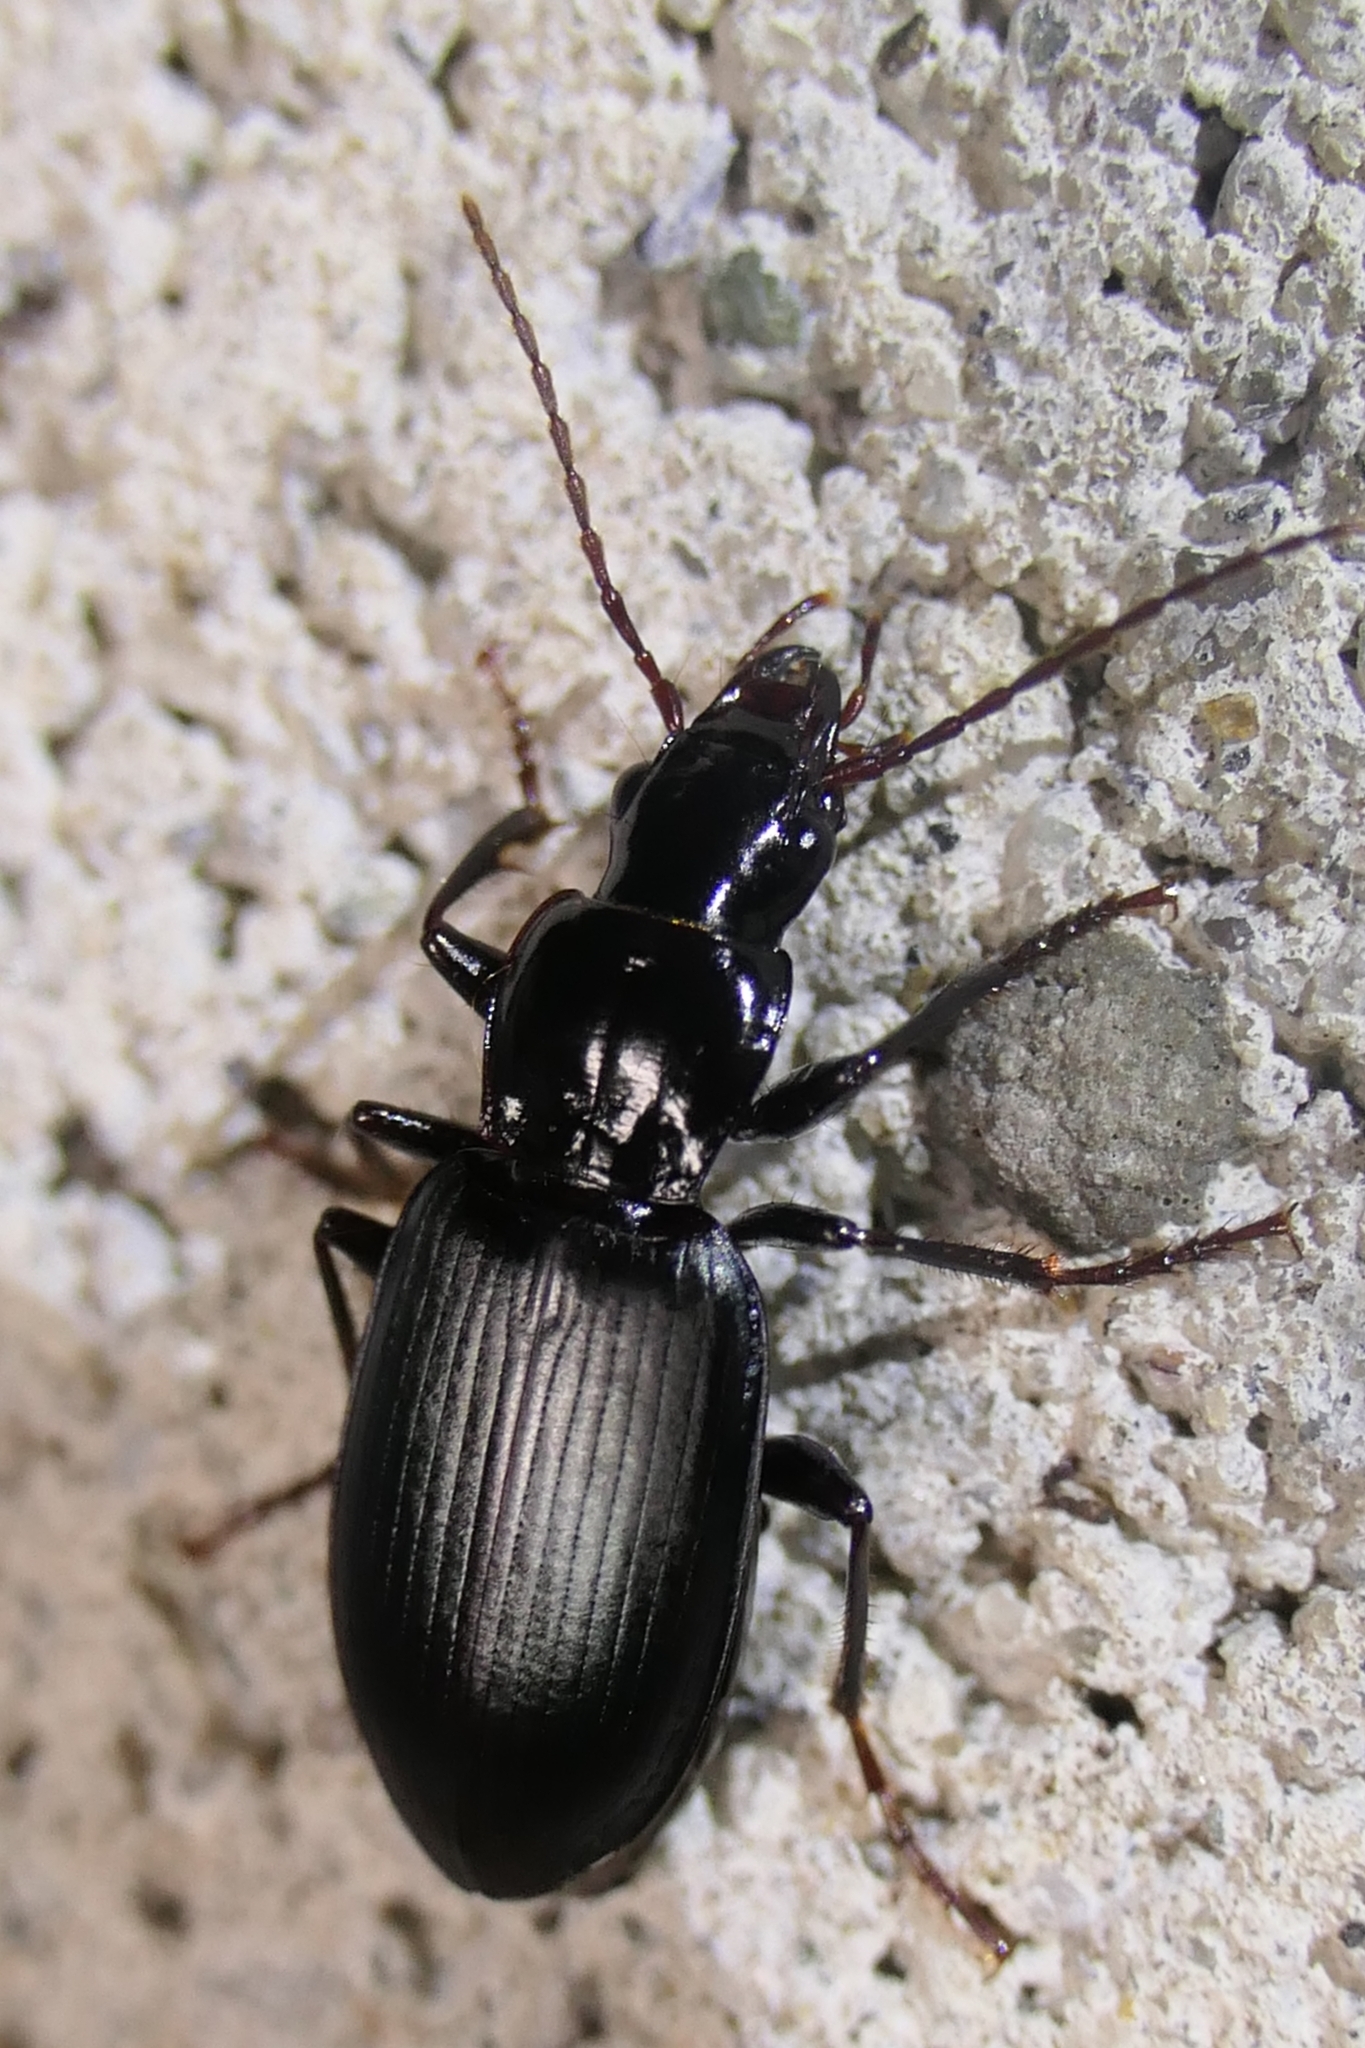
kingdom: Animalia
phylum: Arthropoda
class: Insecta
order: Coleoptera
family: Carabidae
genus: Laemostenus
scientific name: Laemostenus complanatus
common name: Cosmopolitan ground beetle
